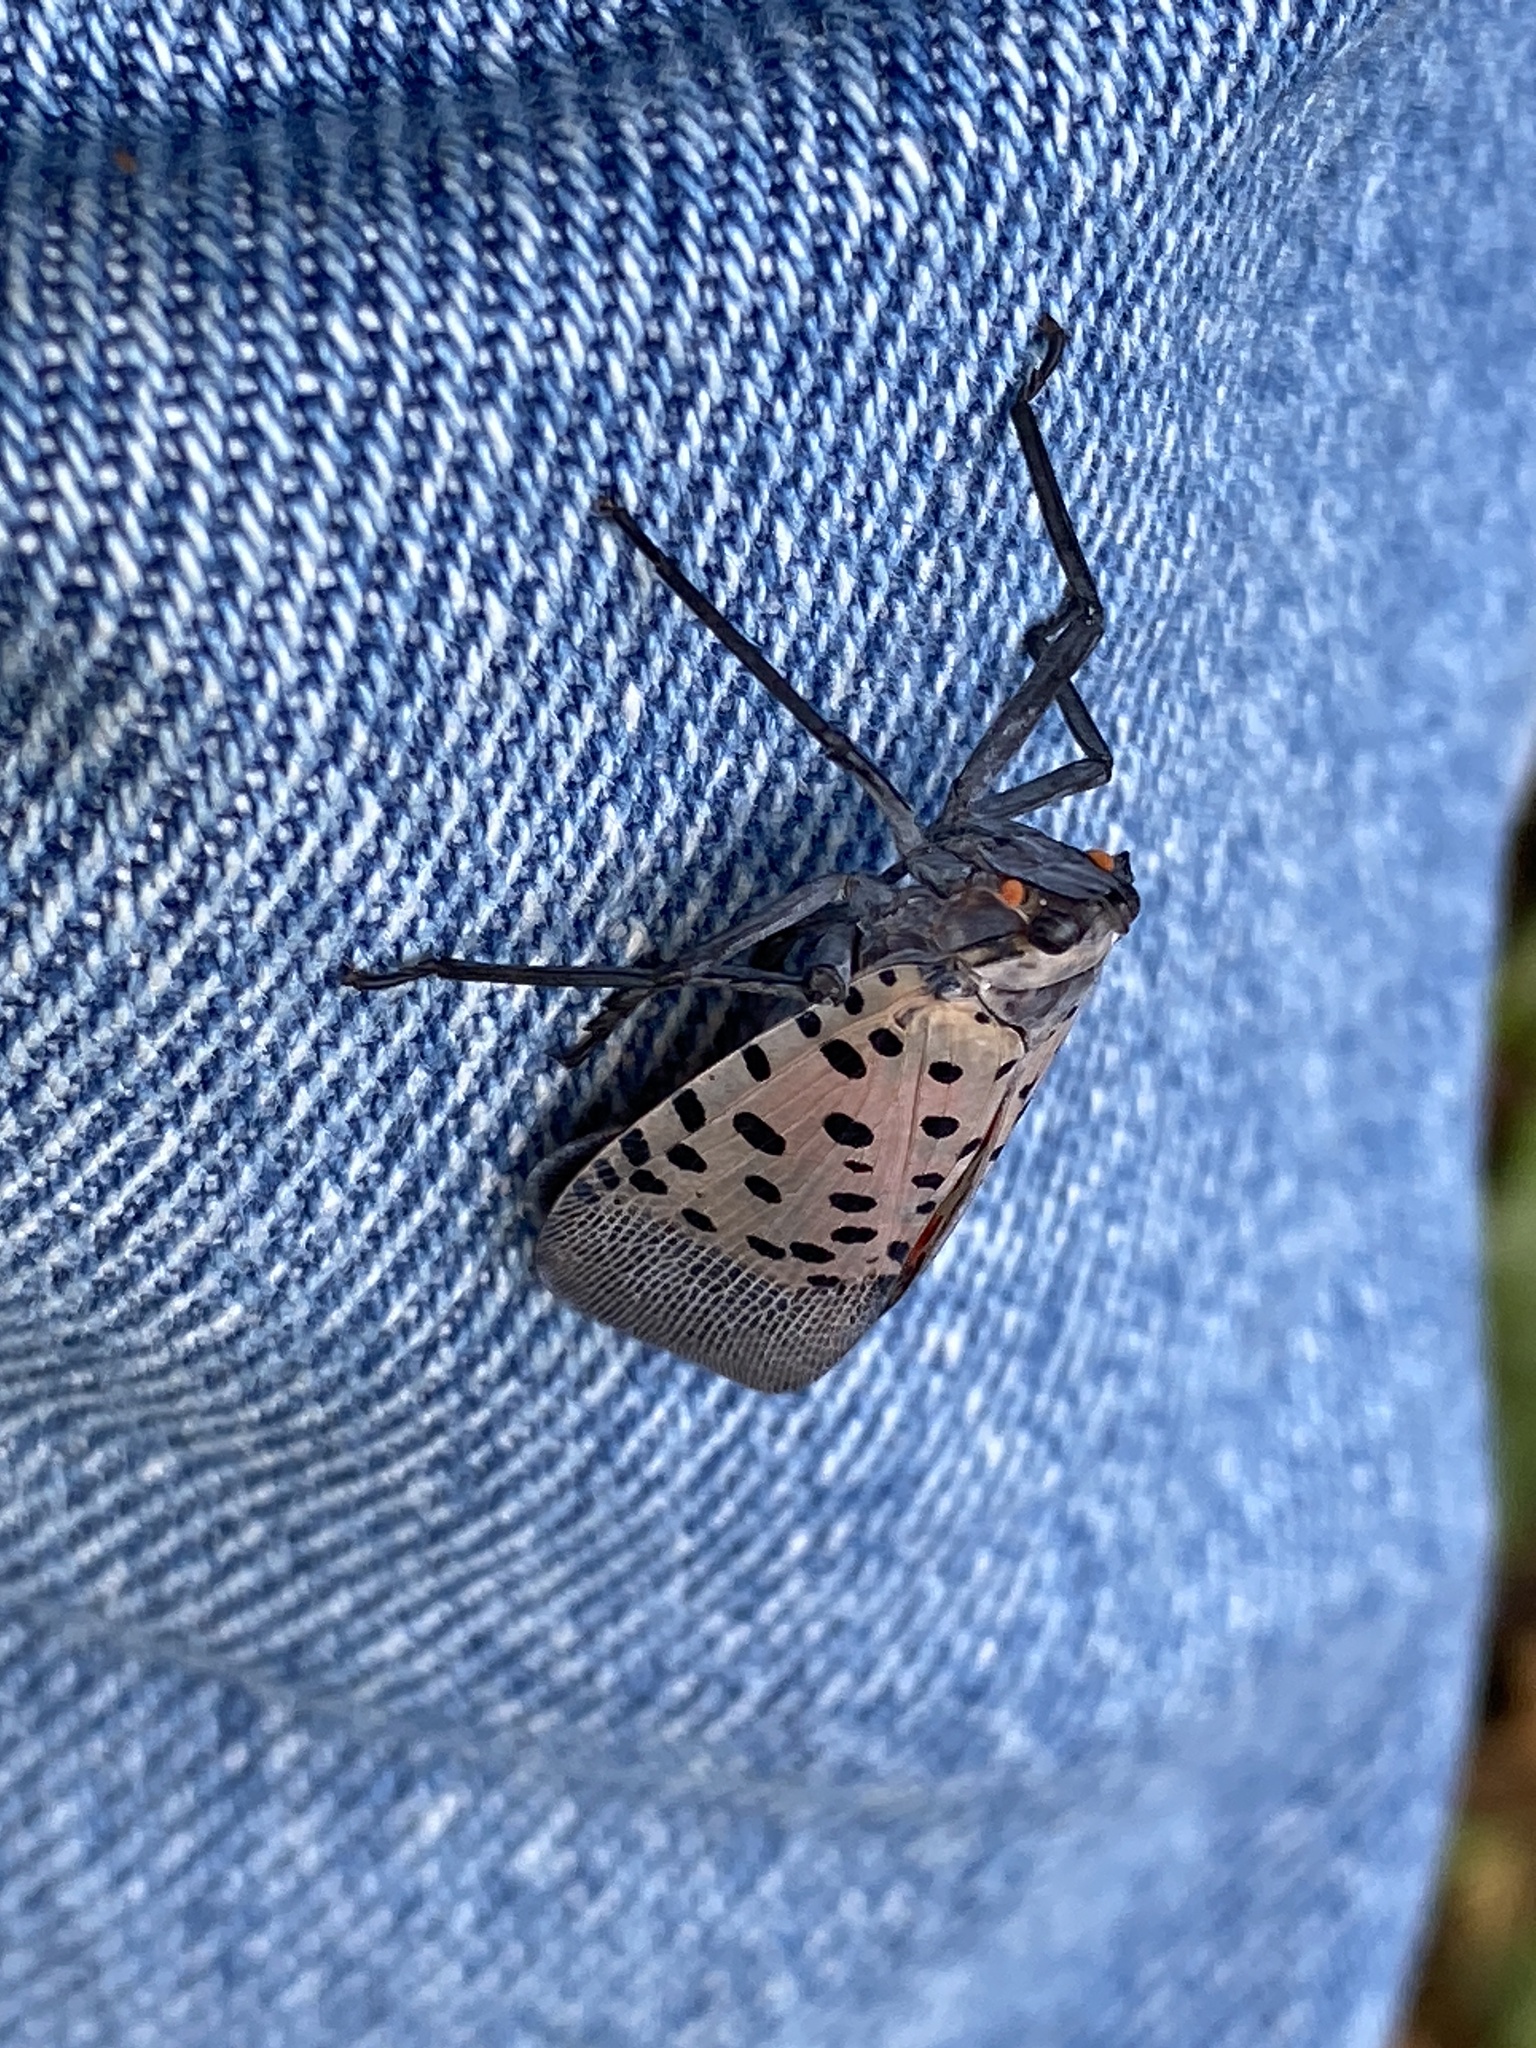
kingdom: Animalia
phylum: Arthropoda
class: Insecta
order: Hemiptera
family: Fulgoridae
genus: Lycorma
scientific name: Lycorma delicatula
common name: Spotted lanternfly
